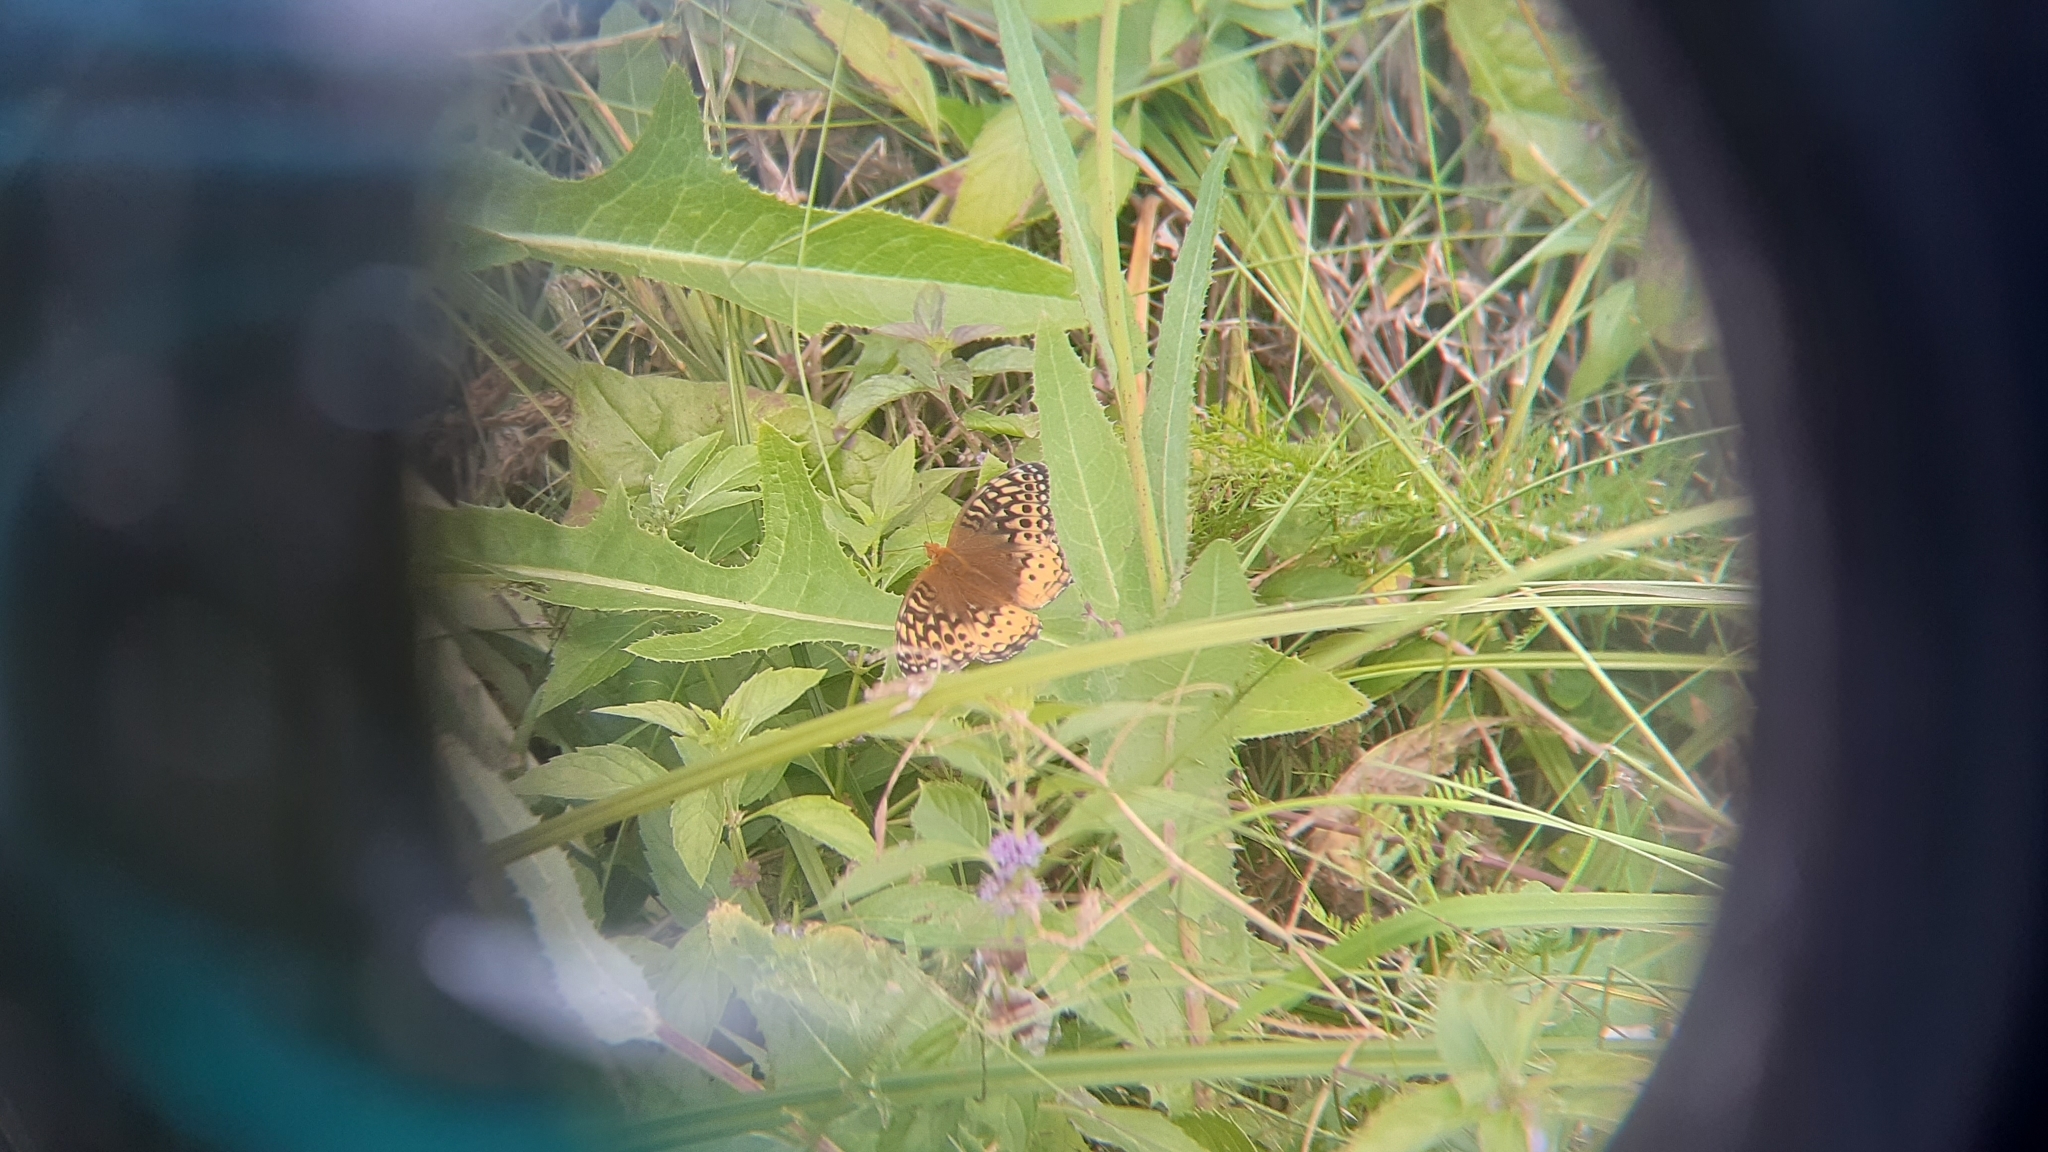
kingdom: Animalia
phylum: Arthropoda
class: Insecta
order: Lepidoptera
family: Nymphalidae
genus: Speyeria
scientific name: Speyeria cybele
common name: Great spangled fritillary
